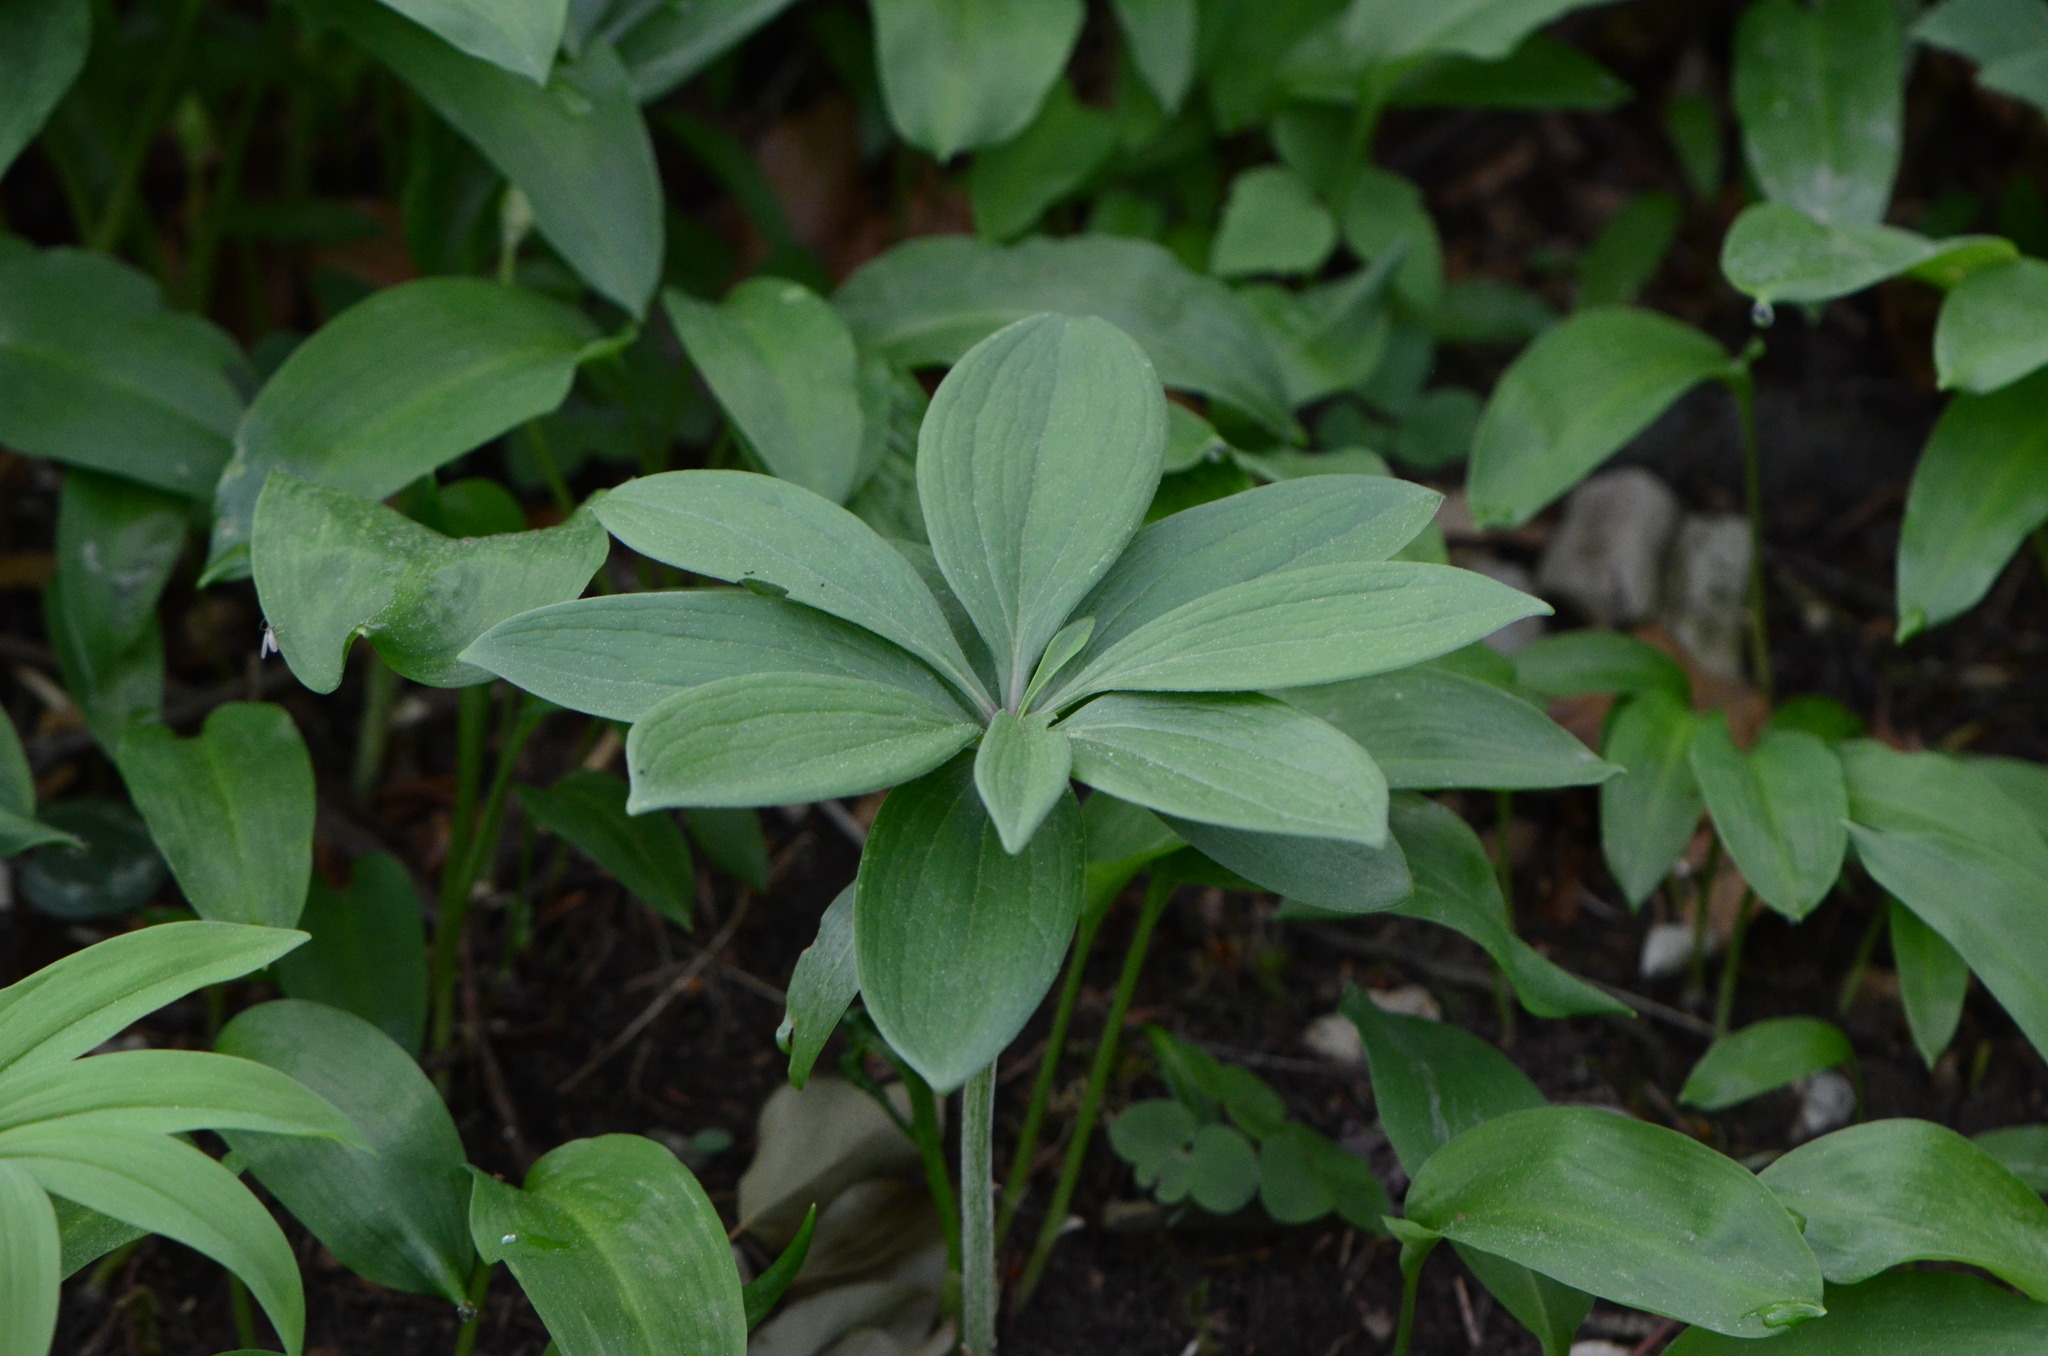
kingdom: Plantae
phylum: Tracheophyta
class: Liliopsida
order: Liliales
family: Liliaceae
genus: Lilium
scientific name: Lilium martagon
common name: Martagon lily
